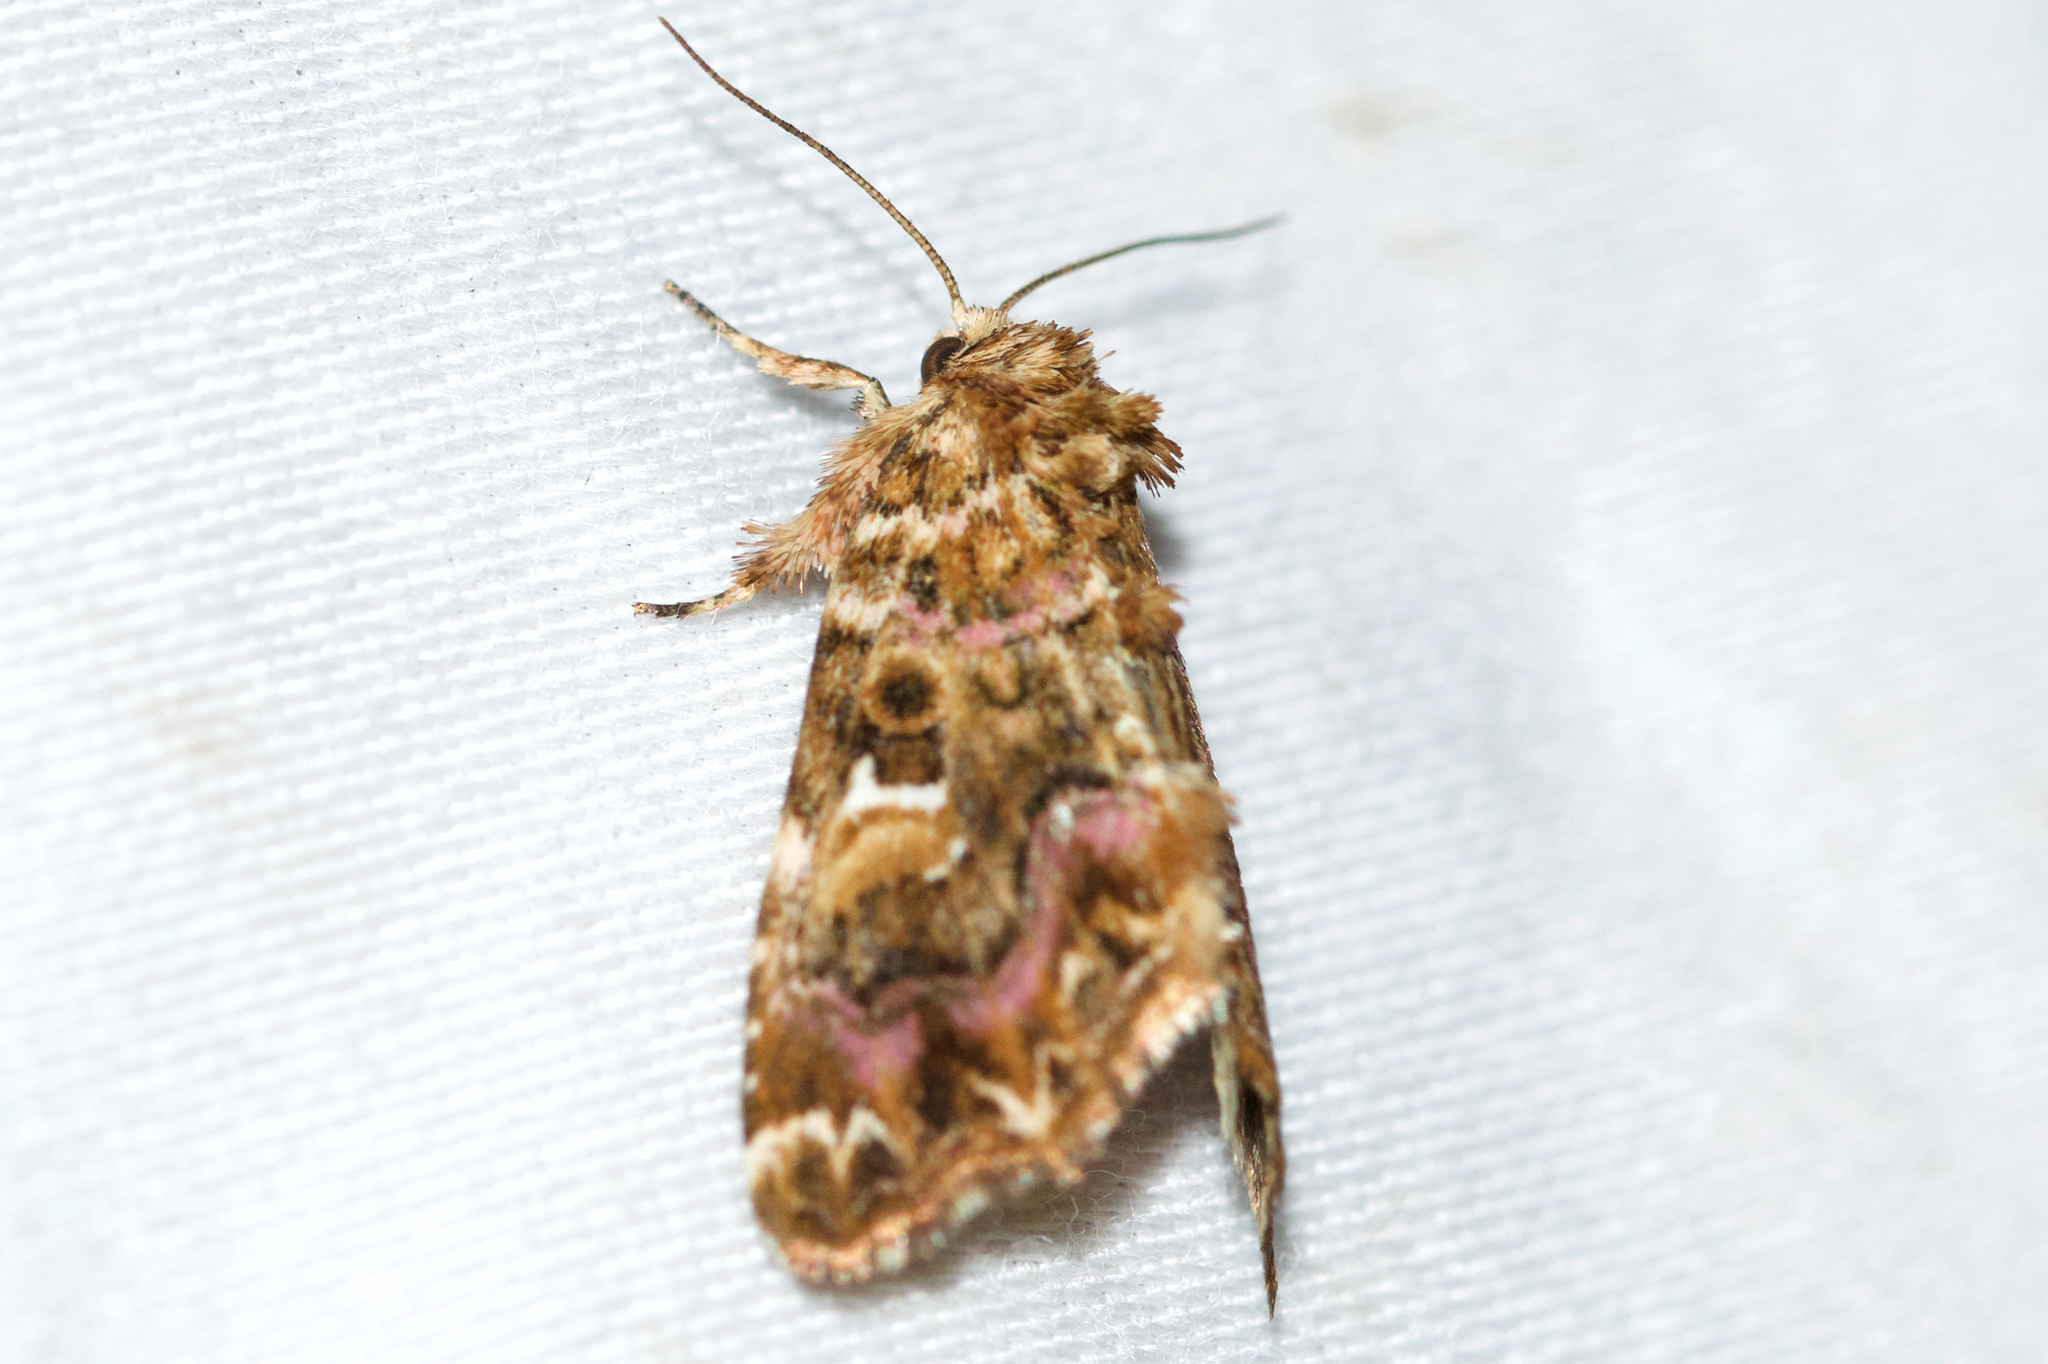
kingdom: Animalia
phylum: Arthropoda
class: Insecta
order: Lepidoptera
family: Noctuidae
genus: Callopistria
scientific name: Callopistria mollissima
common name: Pink-shaded fern moth
